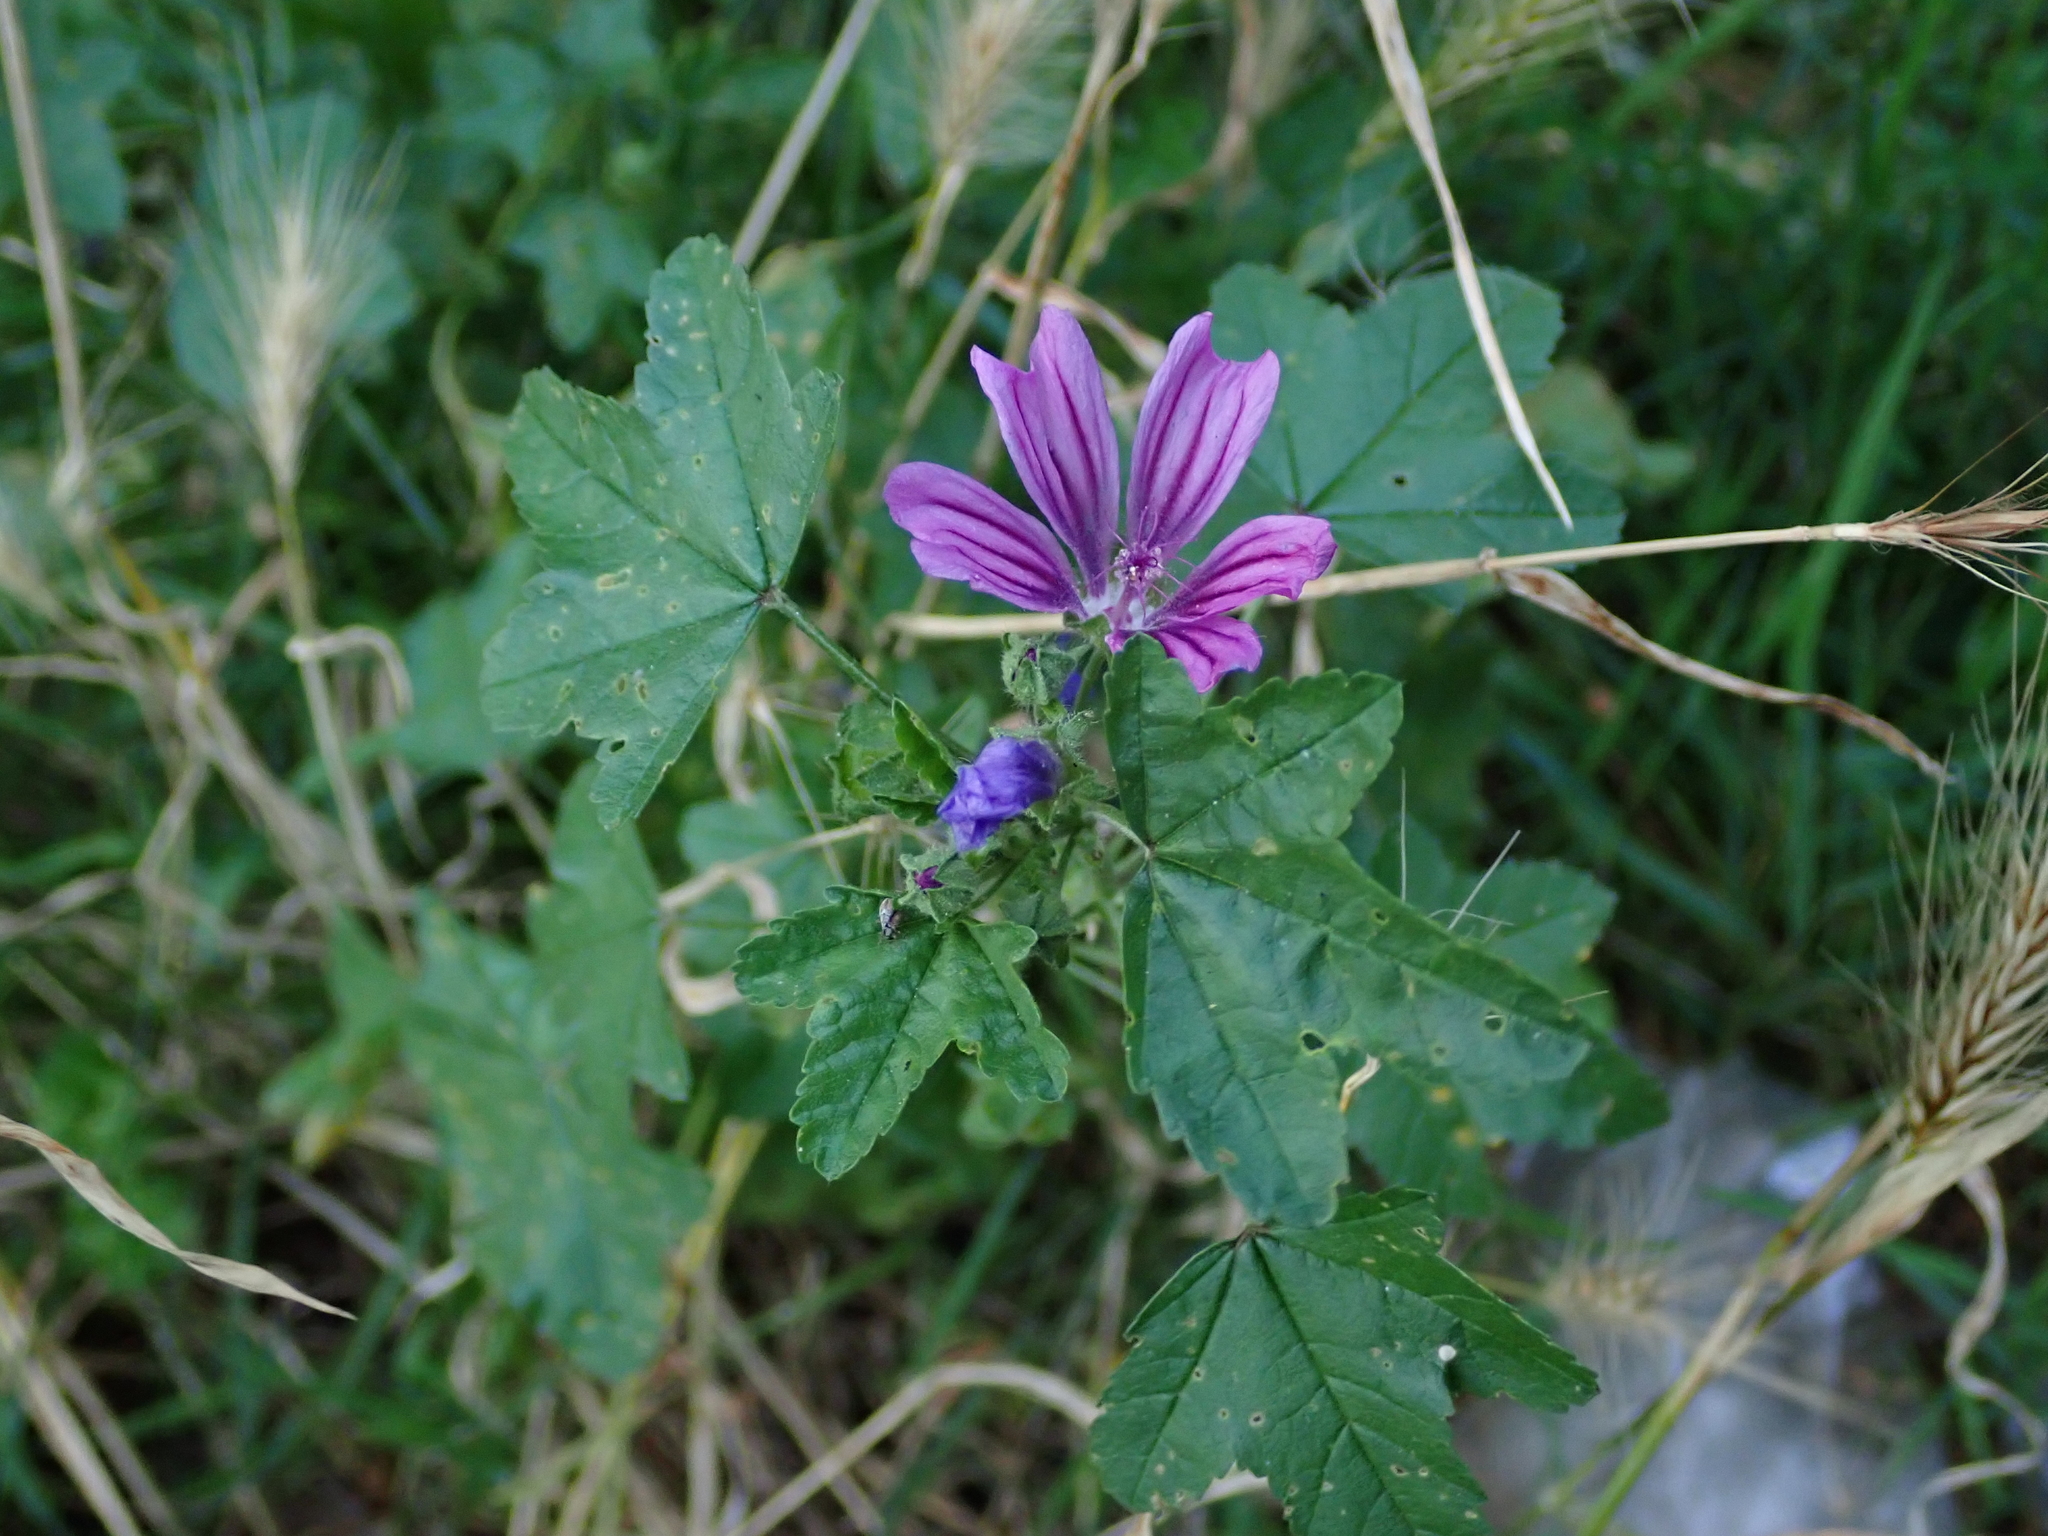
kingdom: Plantae
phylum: Tracheophyta
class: Magnoliopsida
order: Malvales
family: Malvaceae
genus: Malva
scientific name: Malva sylvestris
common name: Common mallow
